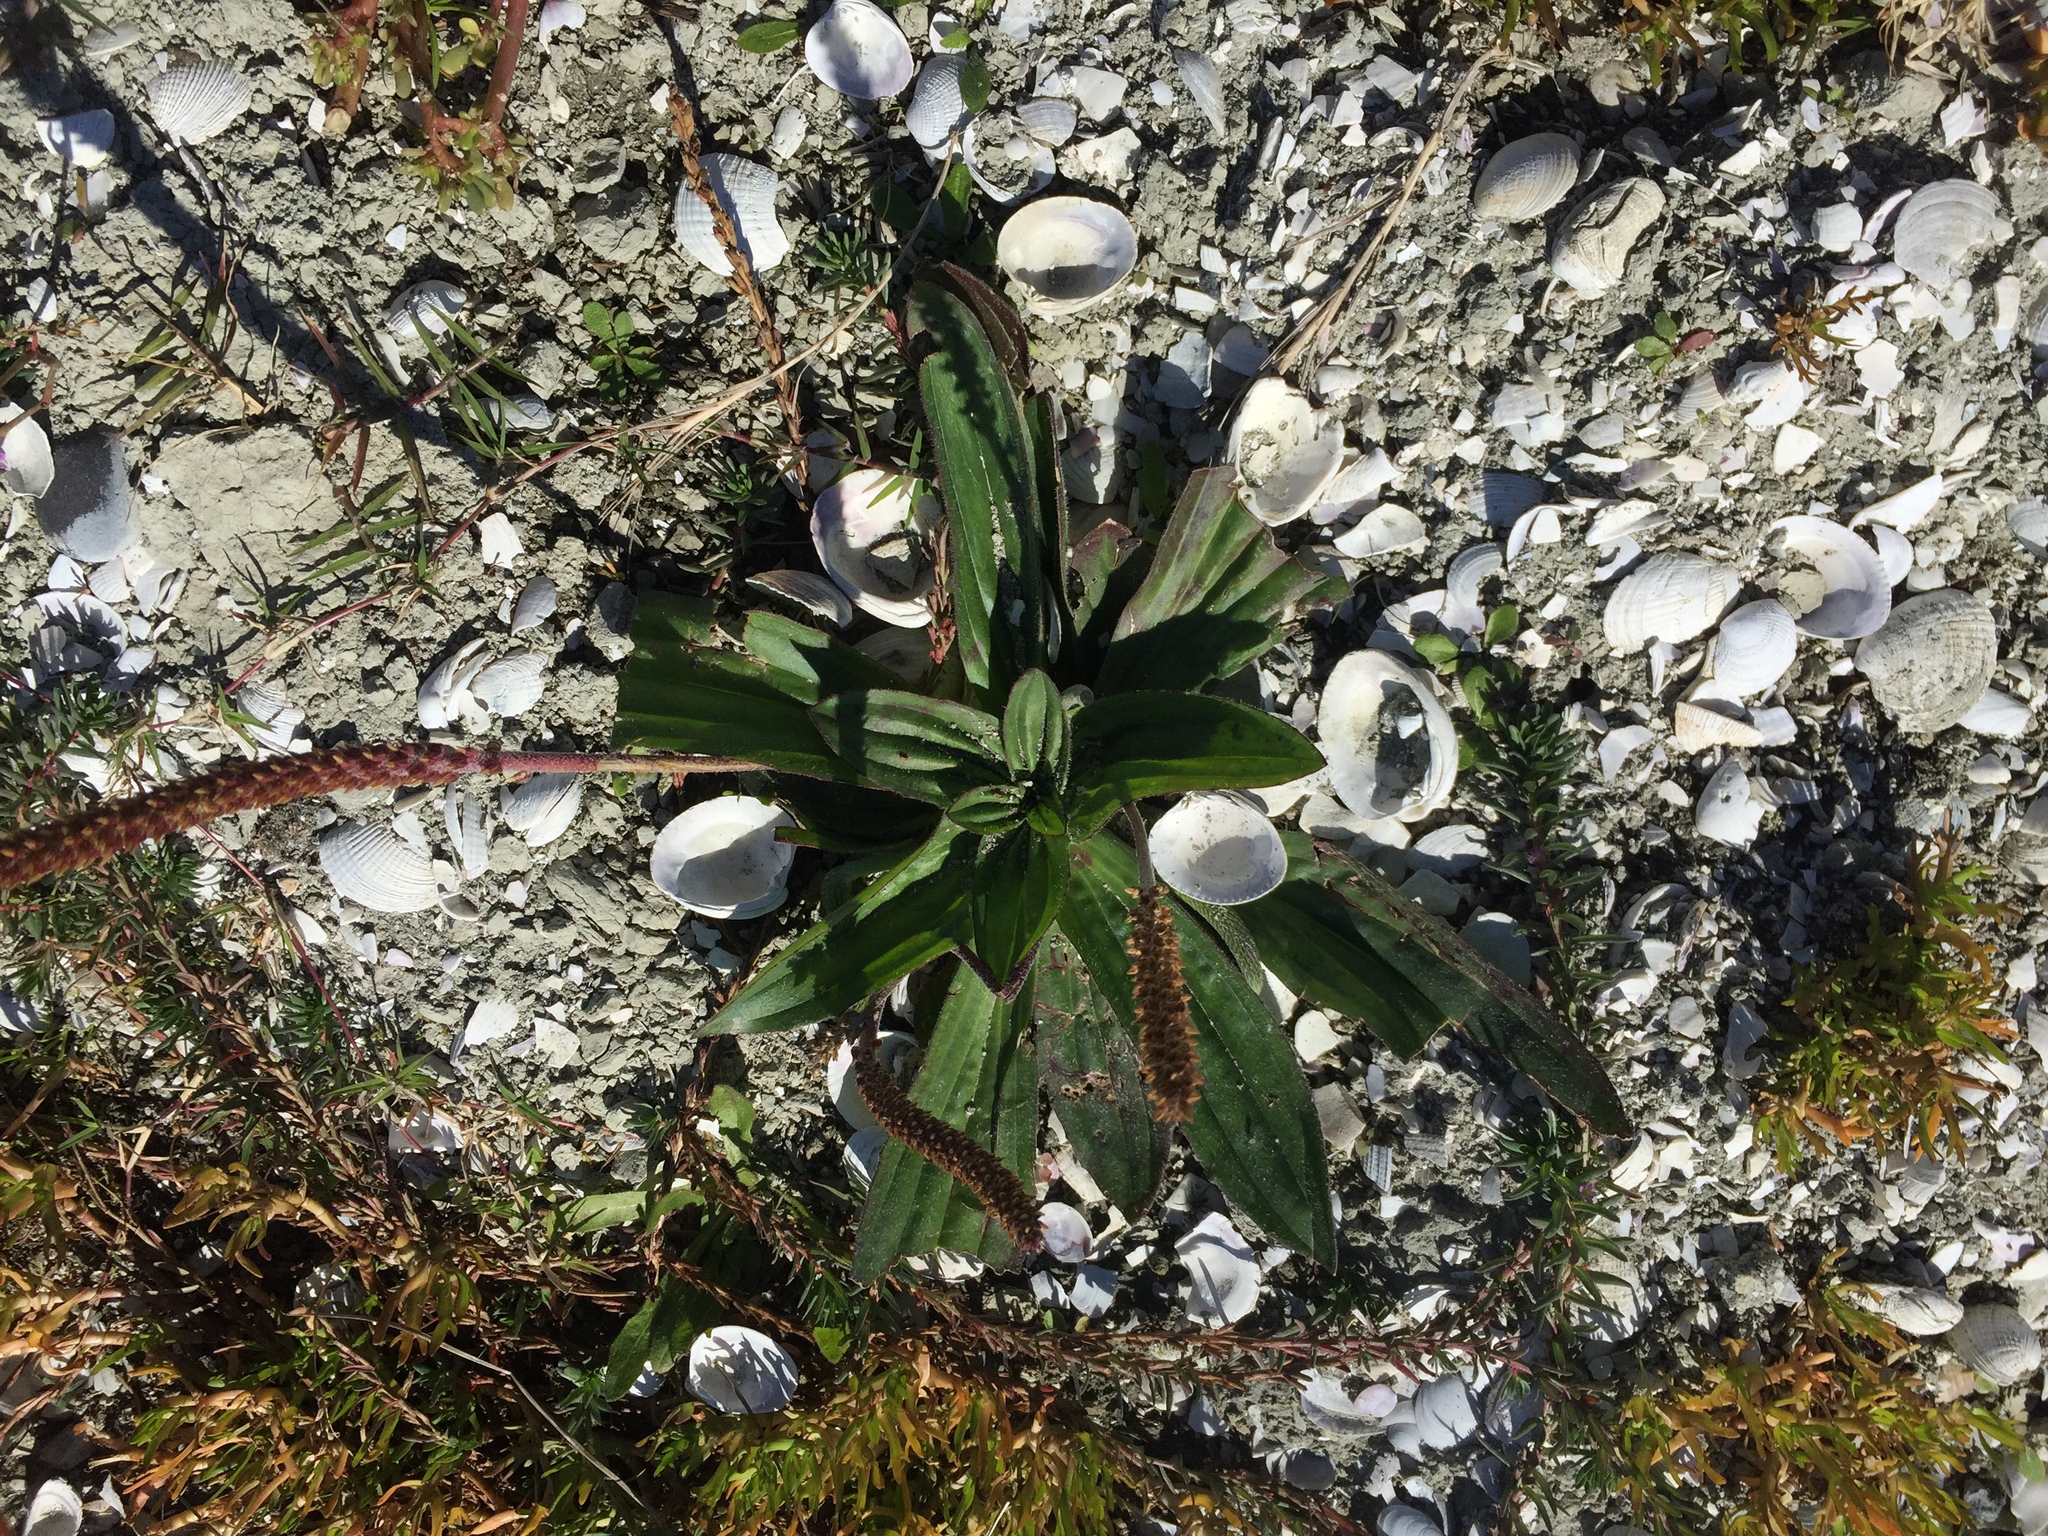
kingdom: Plantae
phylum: Tracheophyta
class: Magnoliopsida
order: Lamiales
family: Plantaginaceae
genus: Plantago
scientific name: Plantago australis
